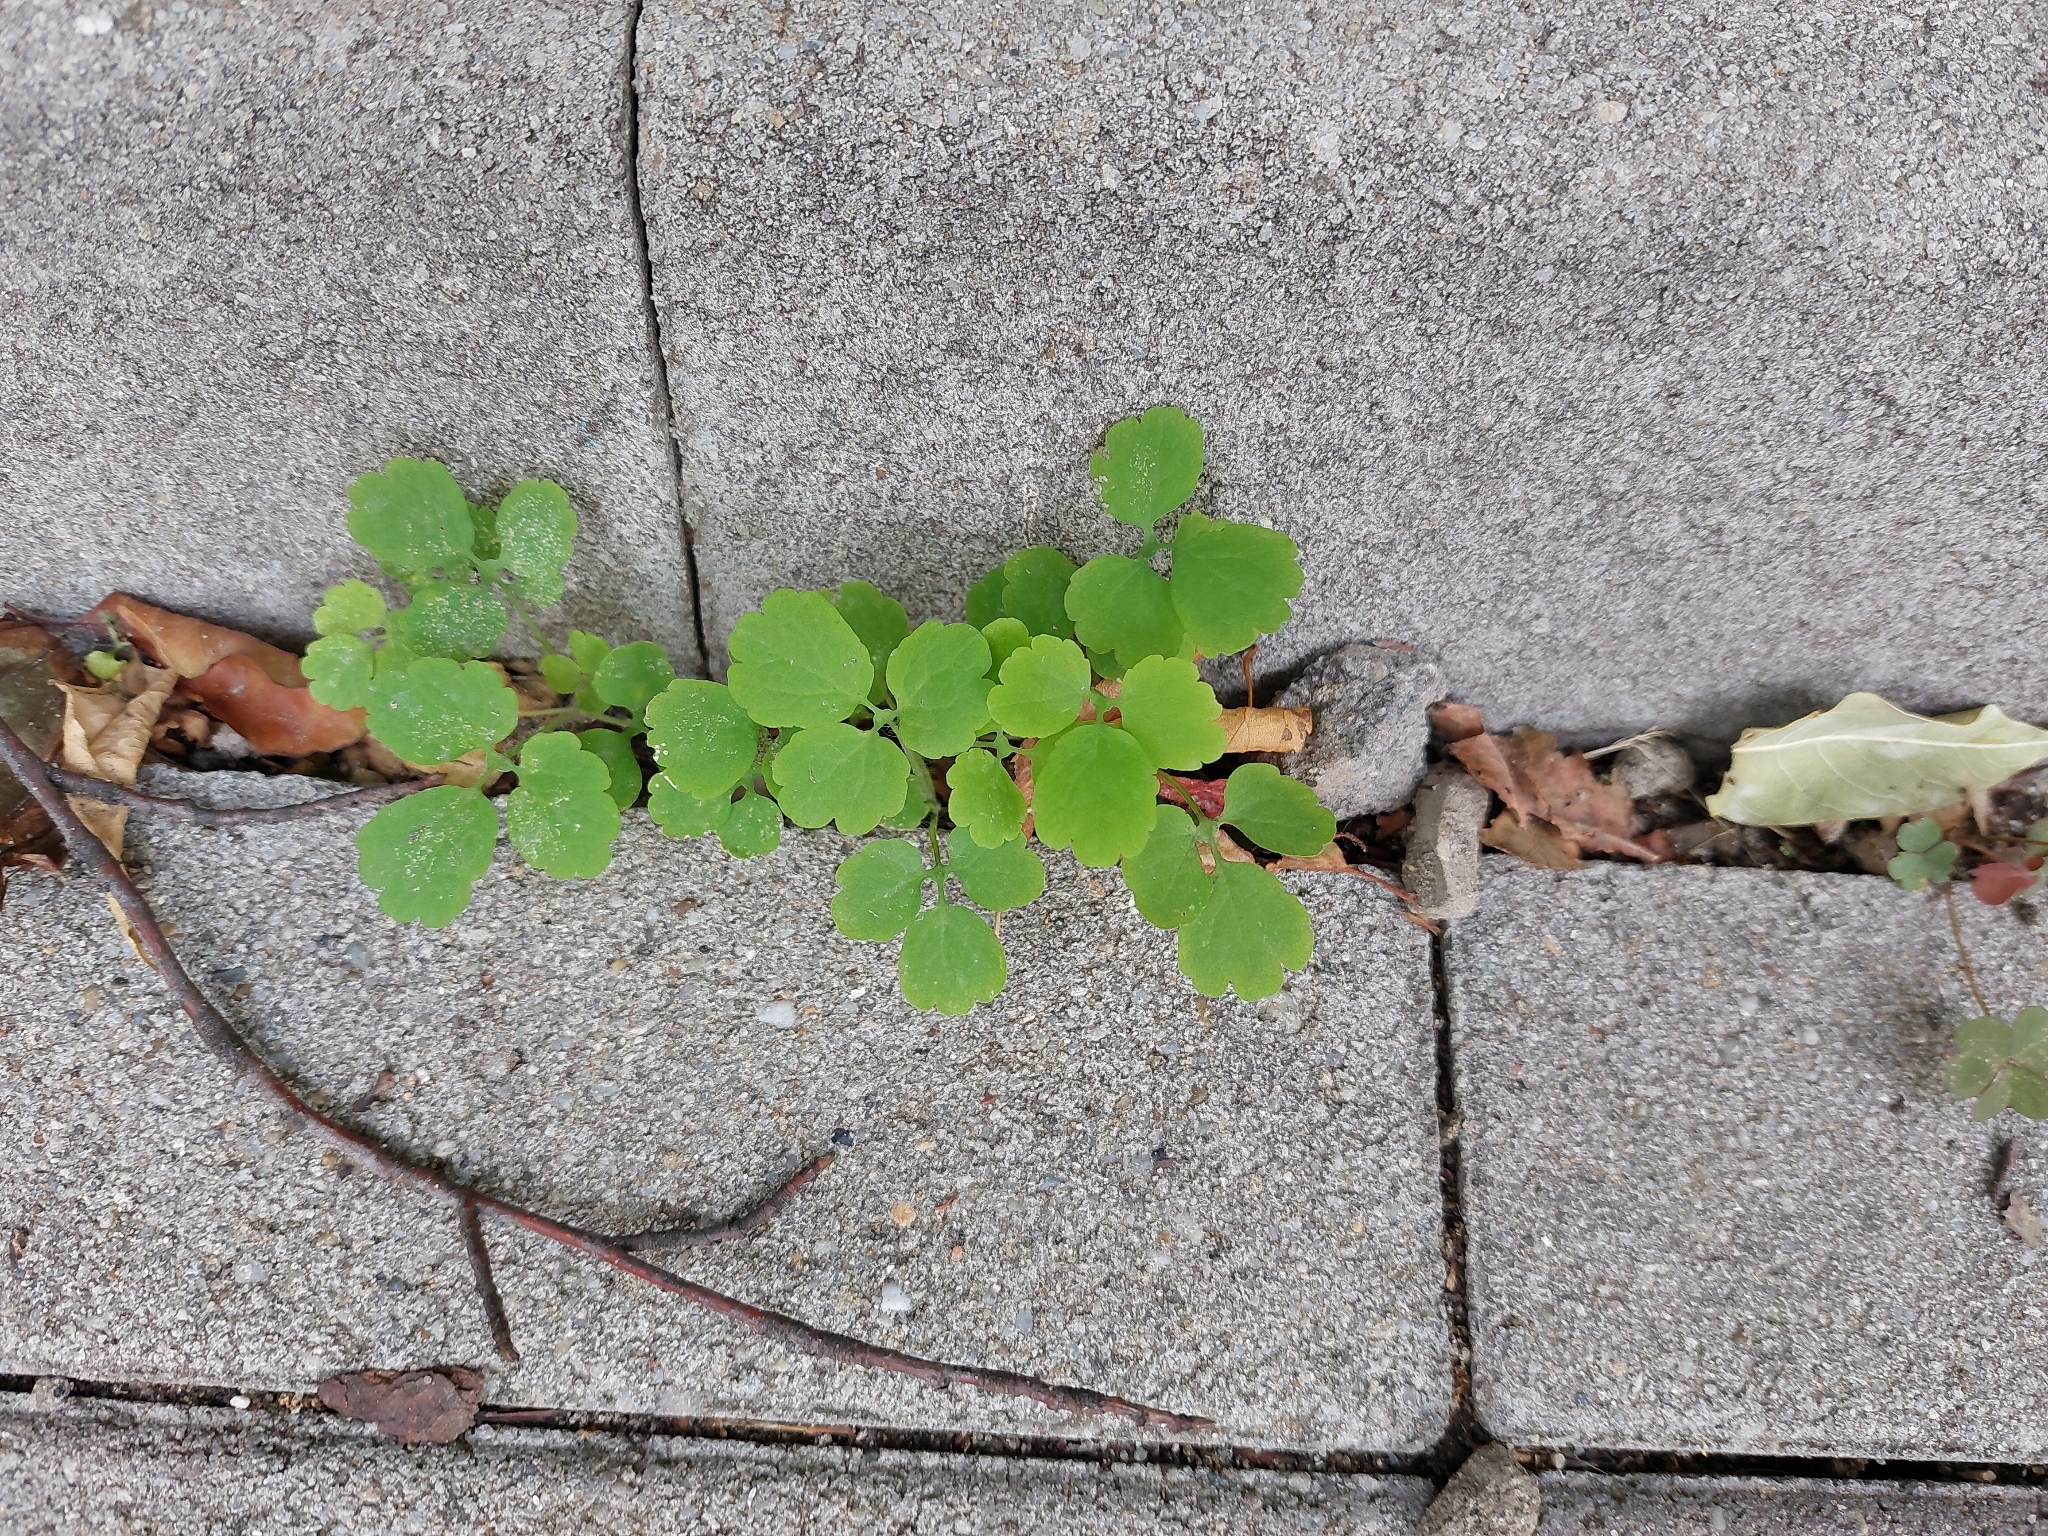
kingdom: Plantae
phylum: Tracheophyta
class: Magnoliopsida
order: Ranunculales
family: Papaveraceae
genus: Chelidonium
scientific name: Chelidonium majus
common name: Greater celandine
